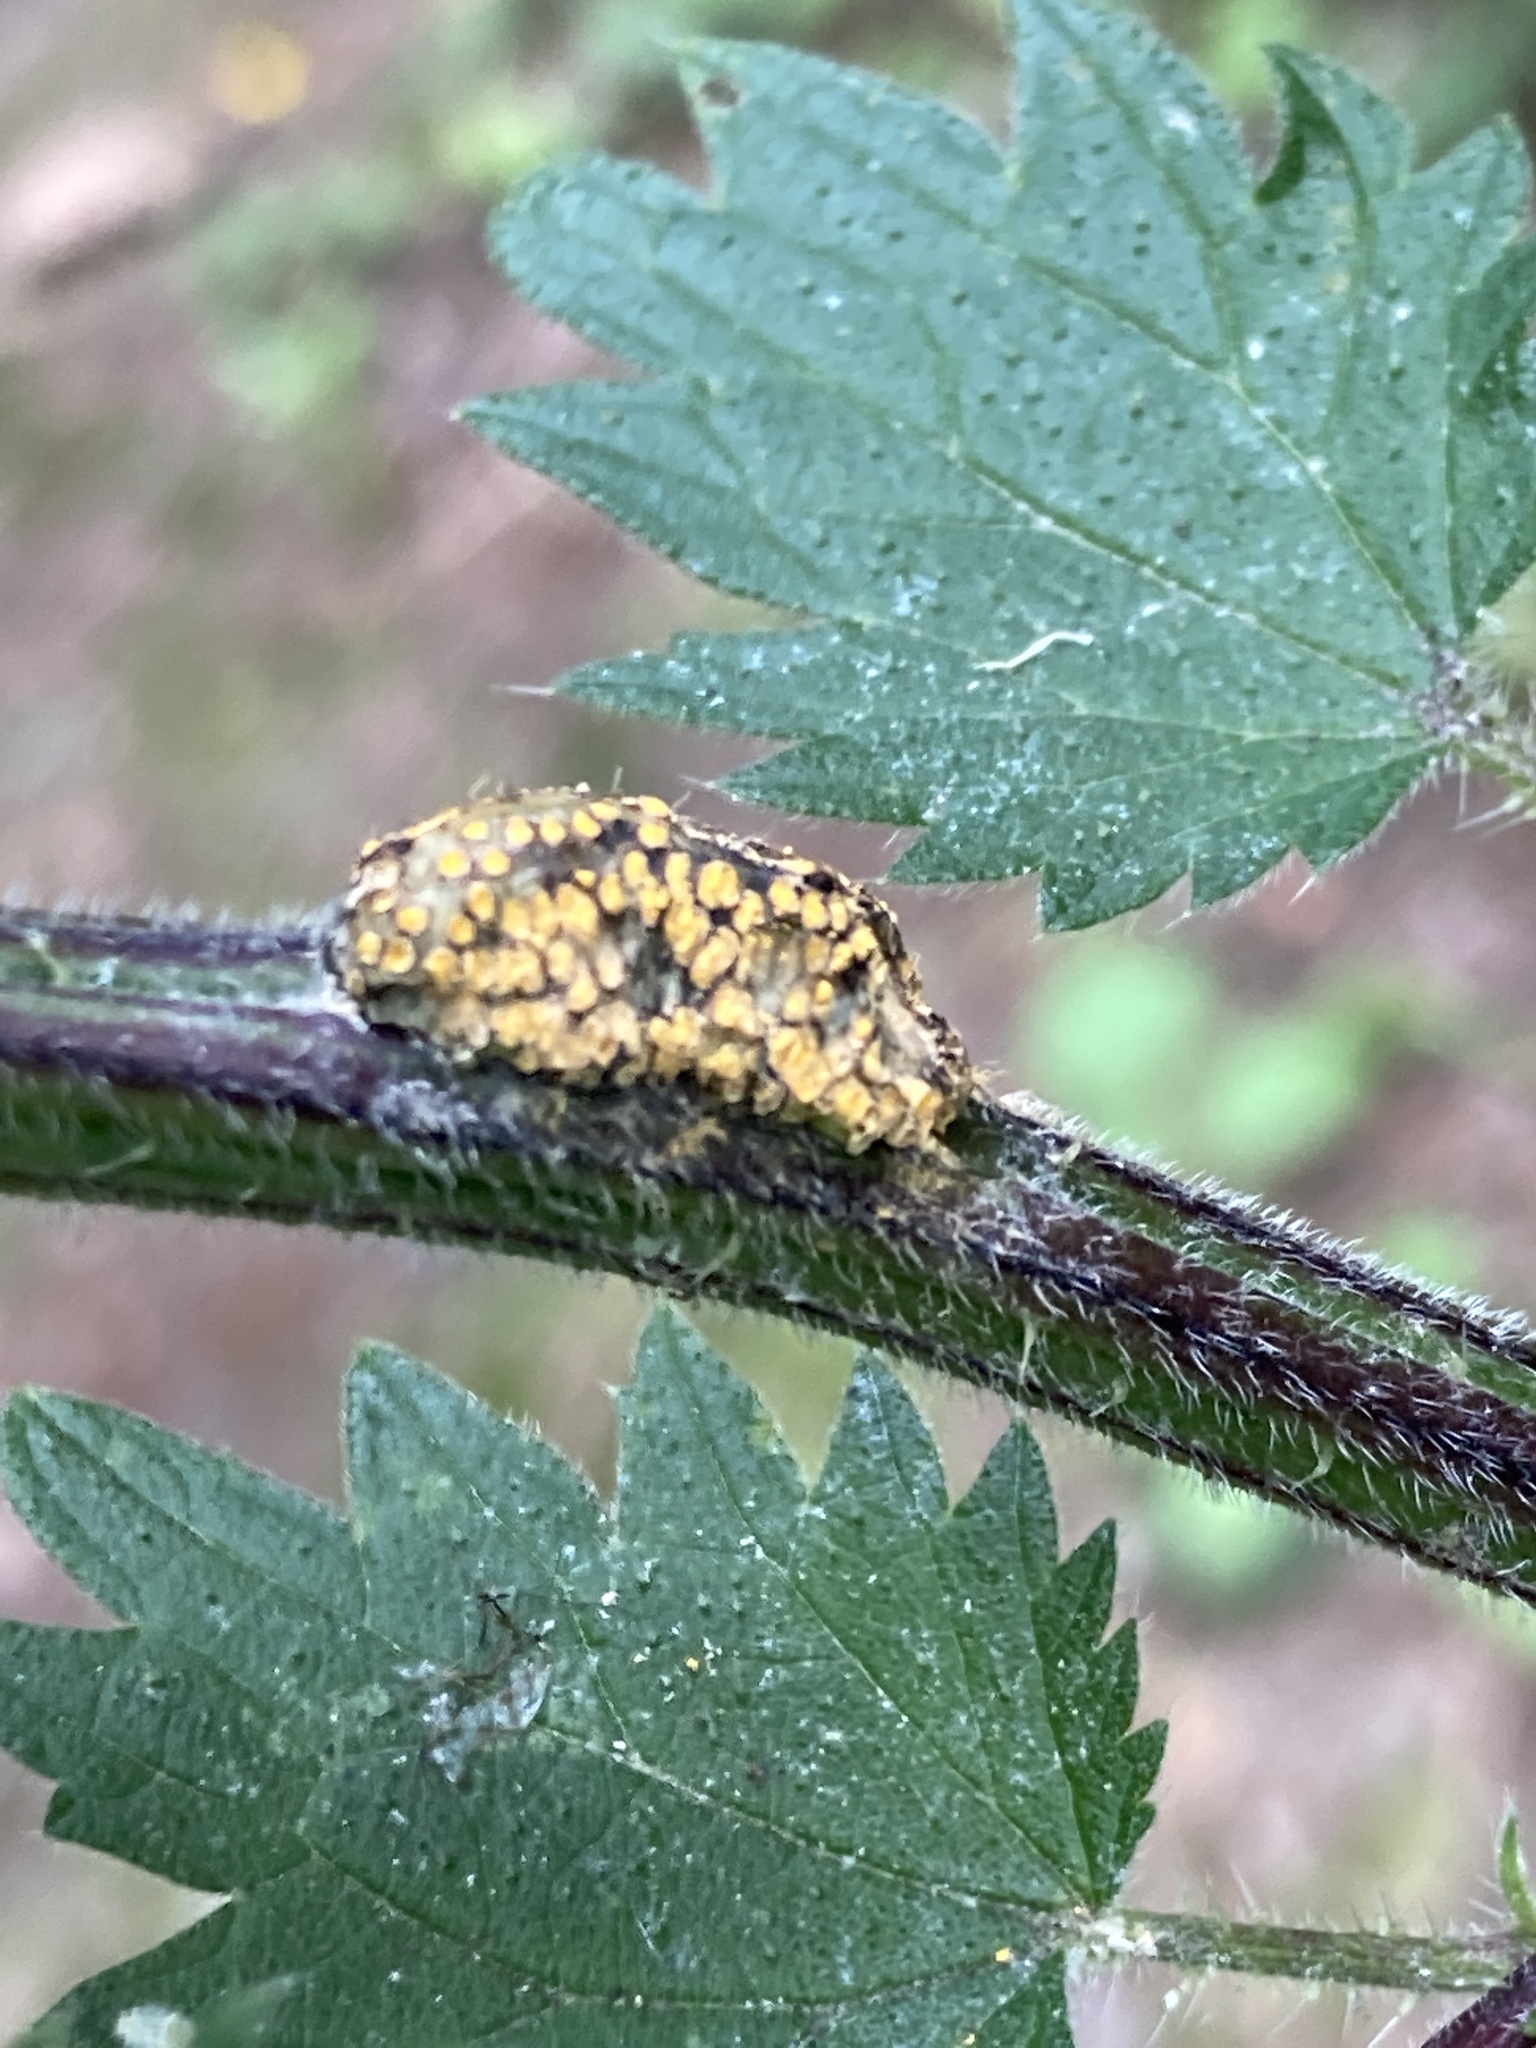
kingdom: Fungi
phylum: Basidiomycota
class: Pucciniomycetes
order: Pucciniales
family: Pucciniaceae
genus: Puccinia
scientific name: Puccinia urticata
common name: Nettle clustercup rust fungus
